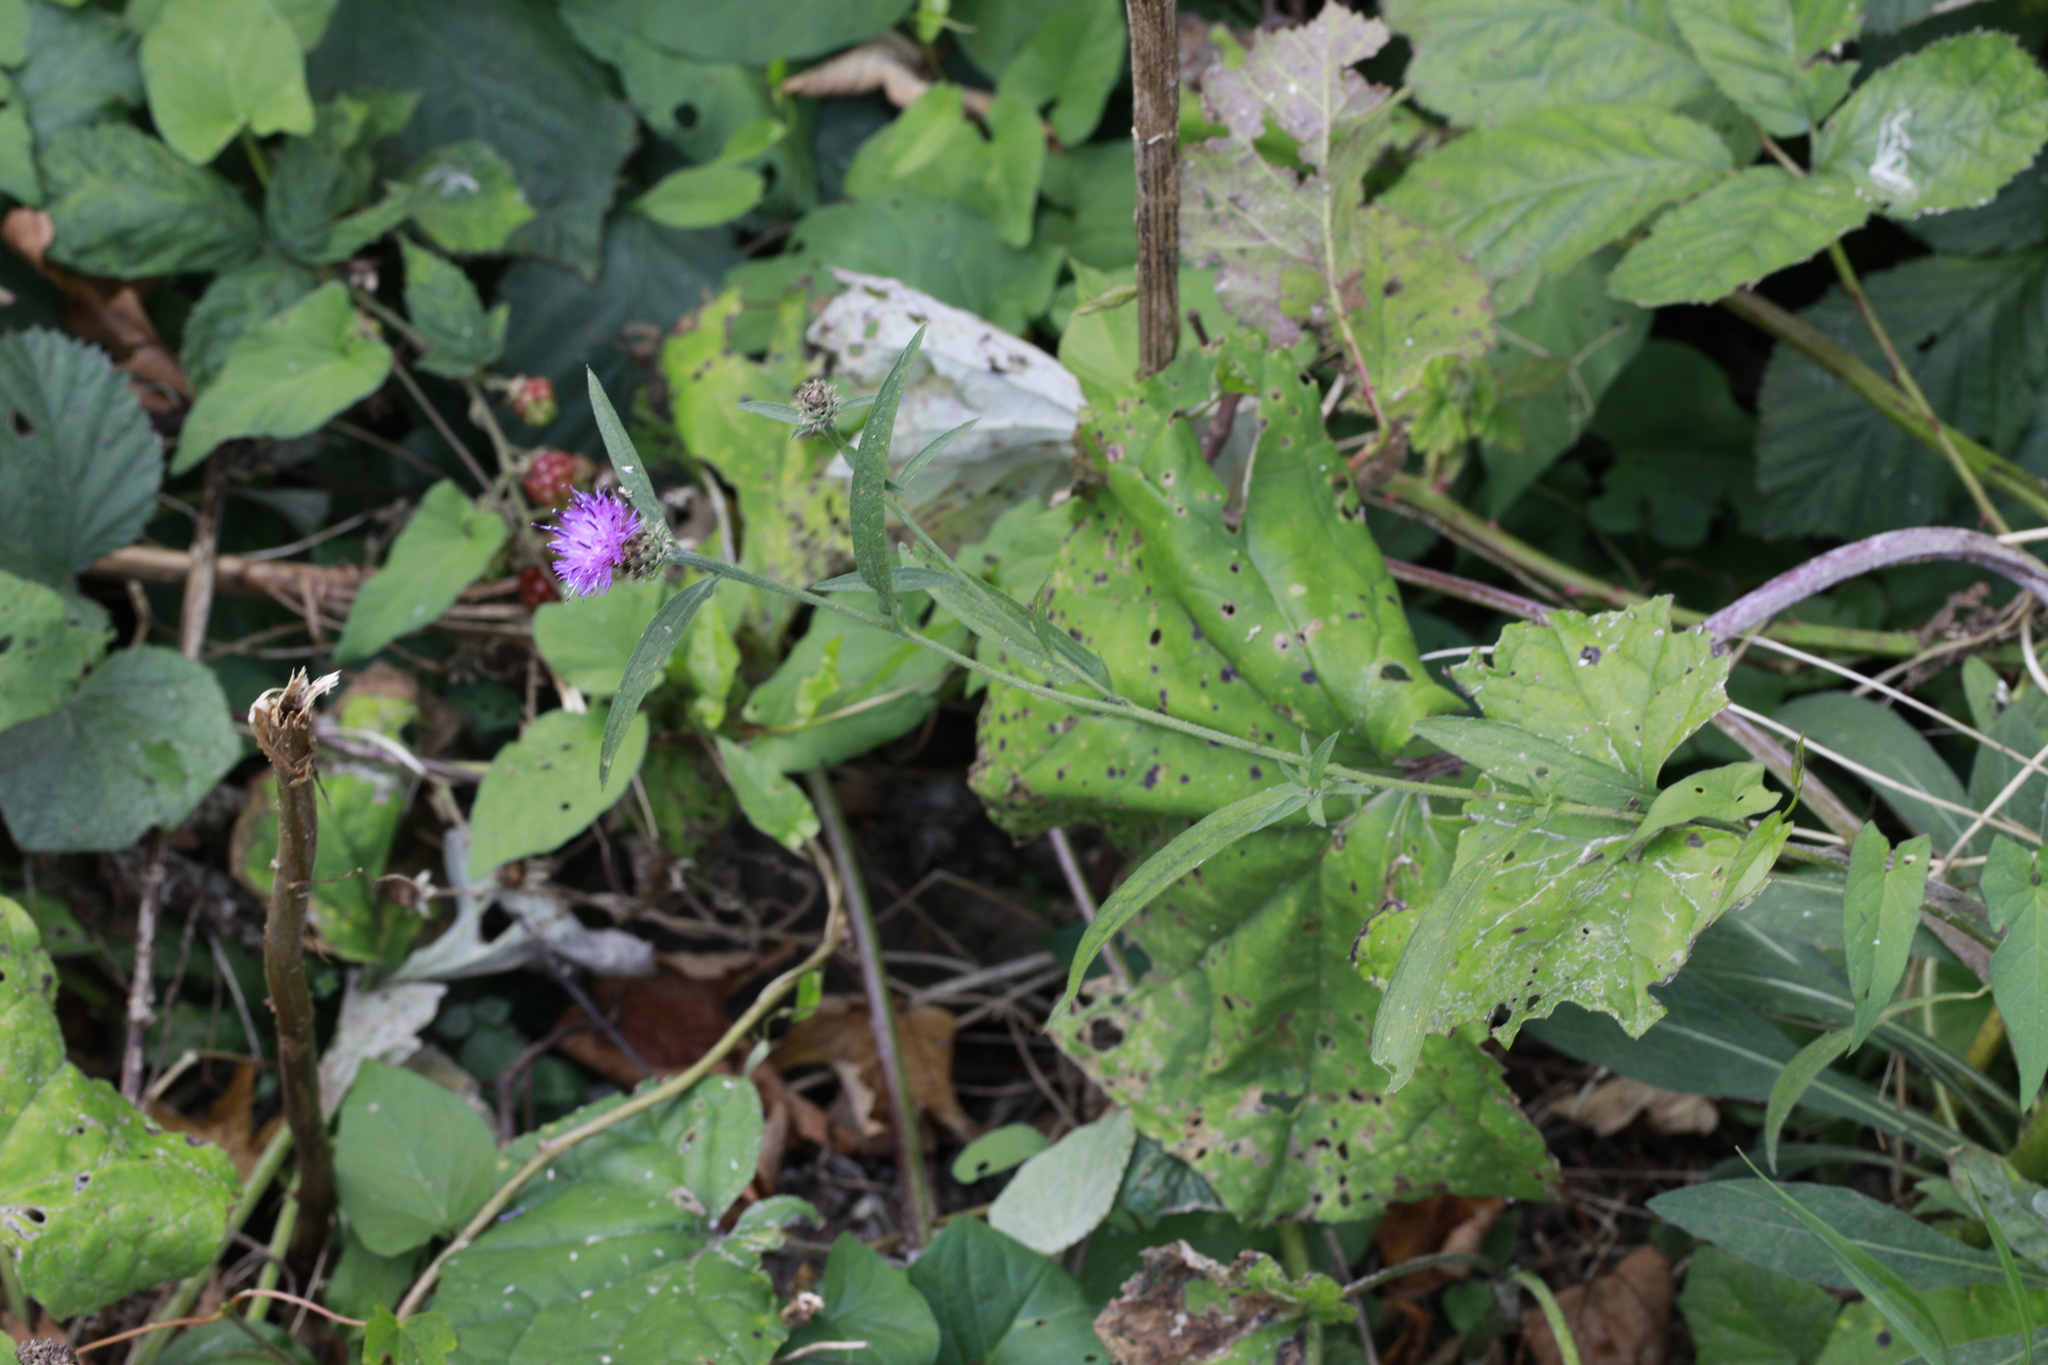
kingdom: Plantae
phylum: Tracheophyta
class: Magnoliopsida
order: Asterales
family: Asteraceae
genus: Centaurea
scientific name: Centaurea nigra
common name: Lesser knapweed
